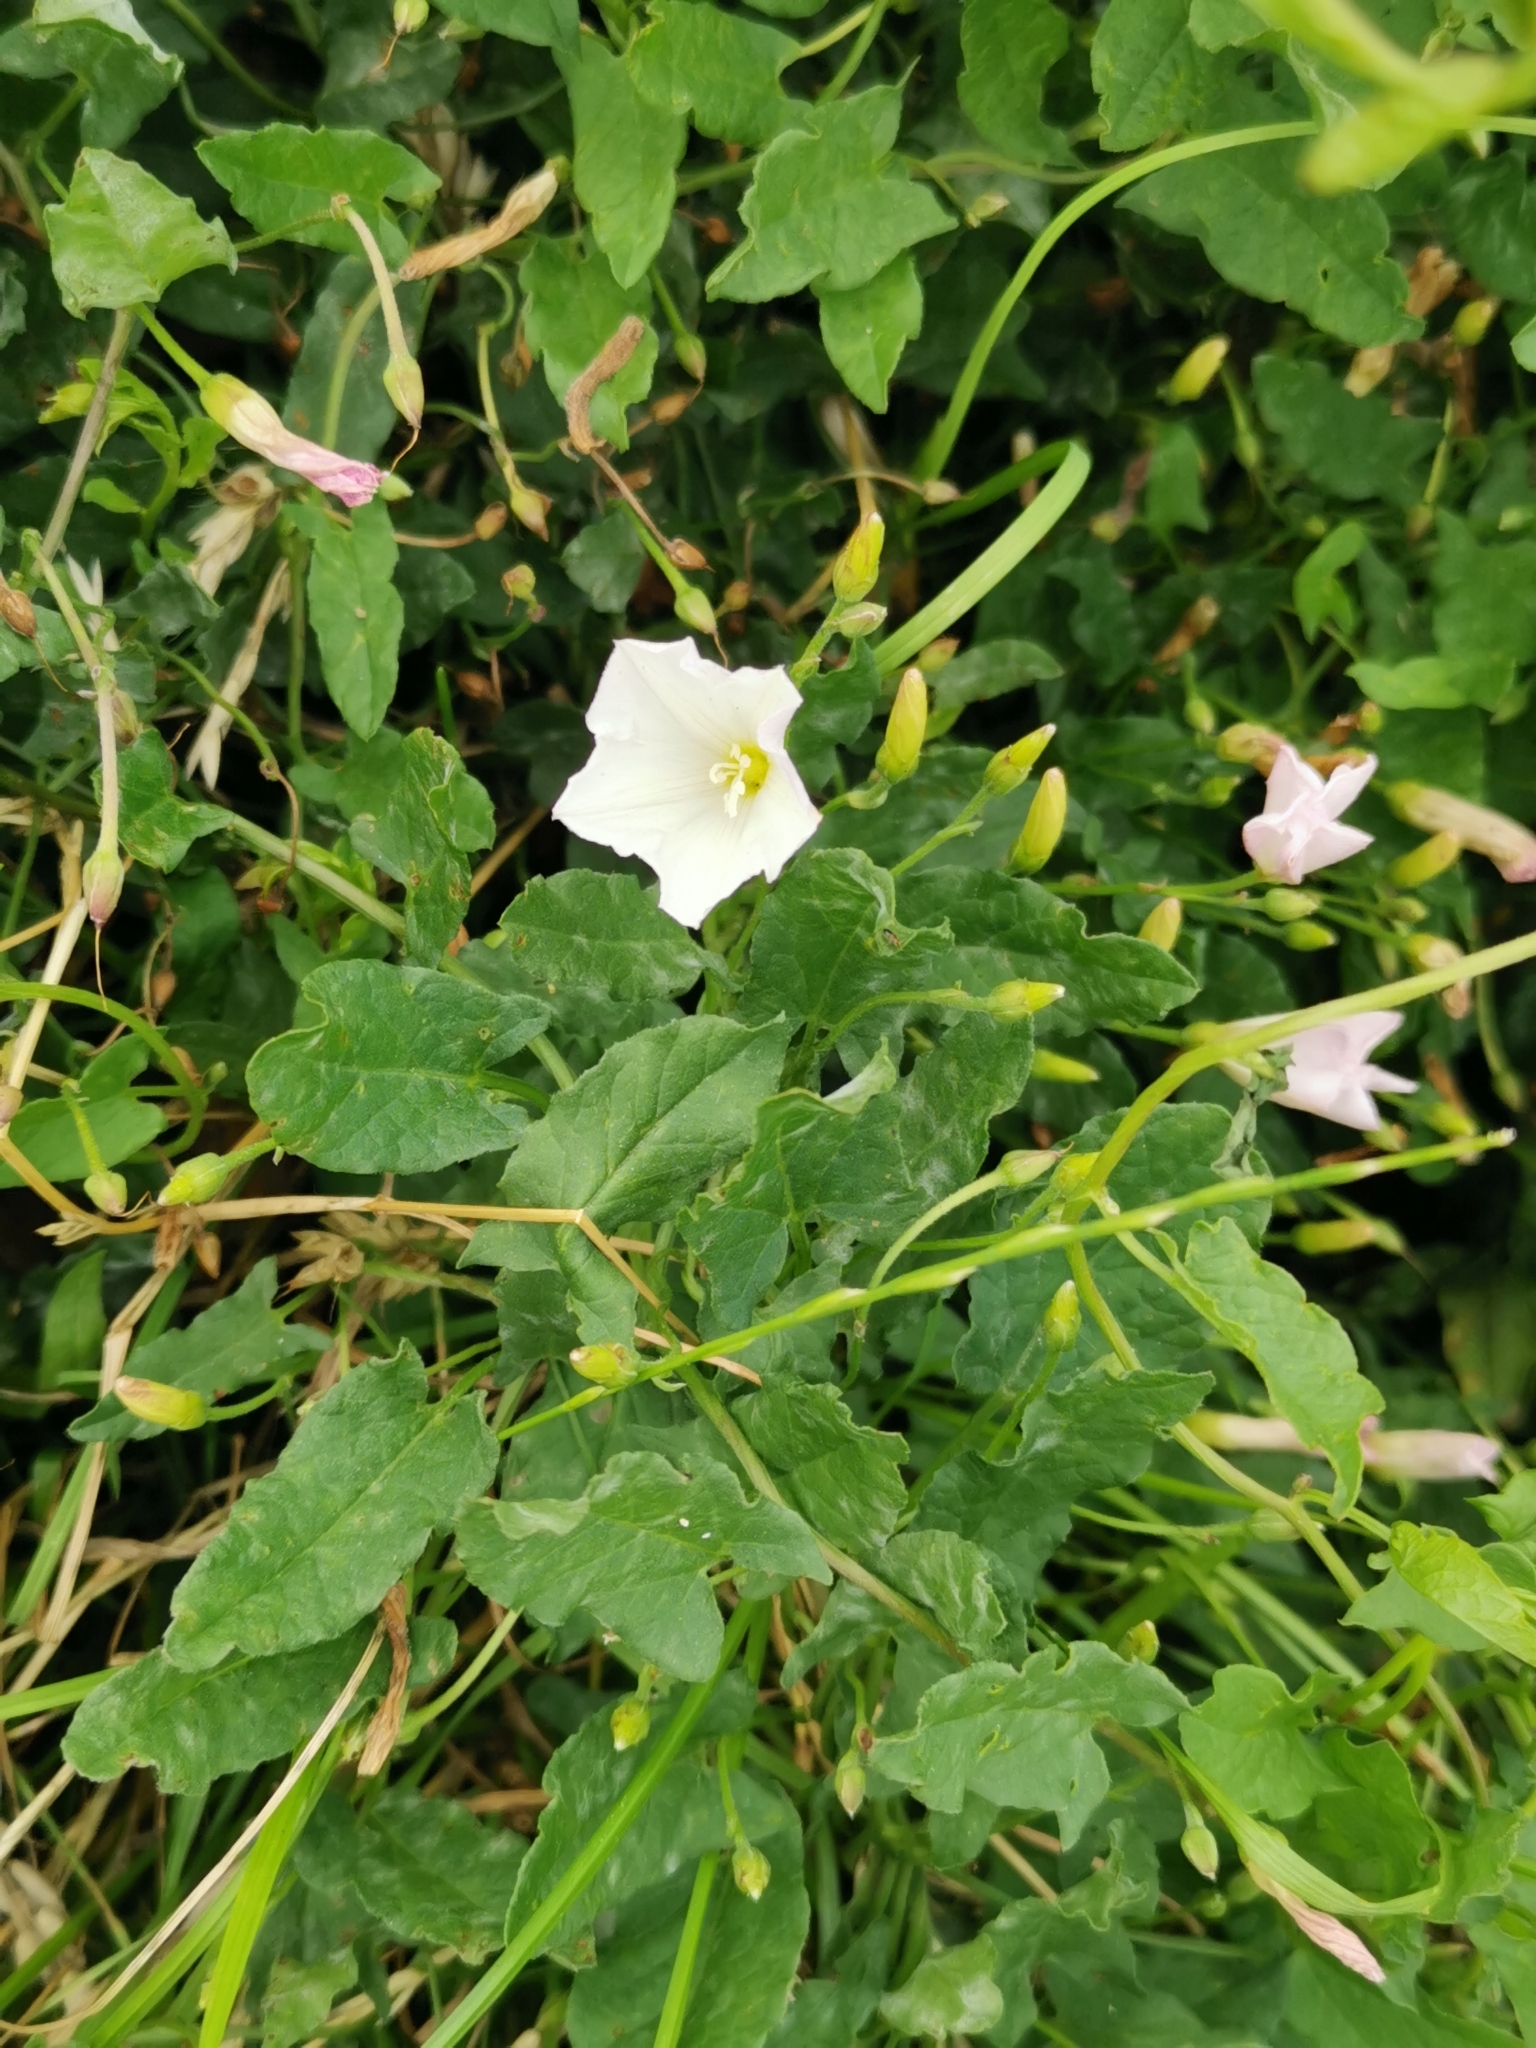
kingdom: Plantae
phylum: Tracheophyta
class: Magnoliopsida
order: Solanales
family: Convolvulaceae
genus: Convolvulus
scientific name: Convolvulus arvensis
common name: Field bindweed
